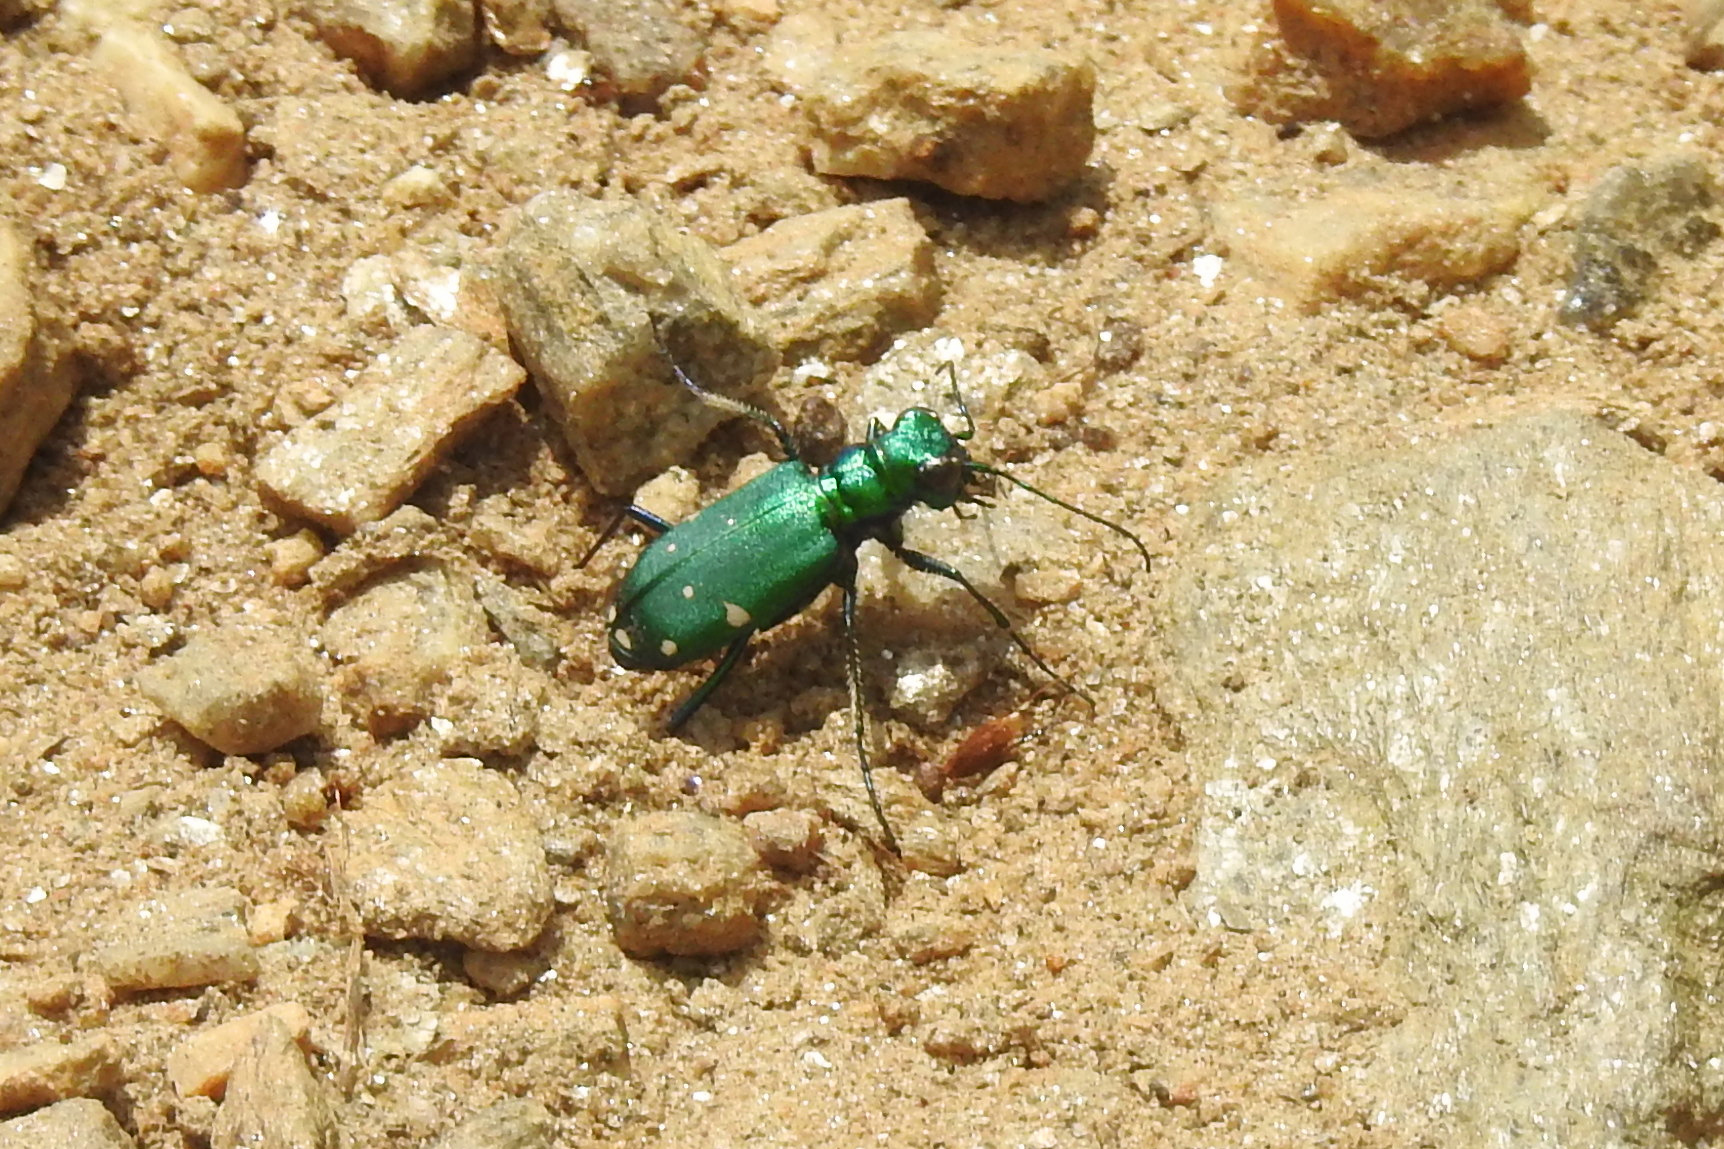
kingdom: Animalia
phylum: Arthropoda
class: Insecta
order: Coleoptera
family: Carabidae
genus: Cicindela
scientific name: Cicindela sexguttata
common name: Six-spotted tiger beetle
